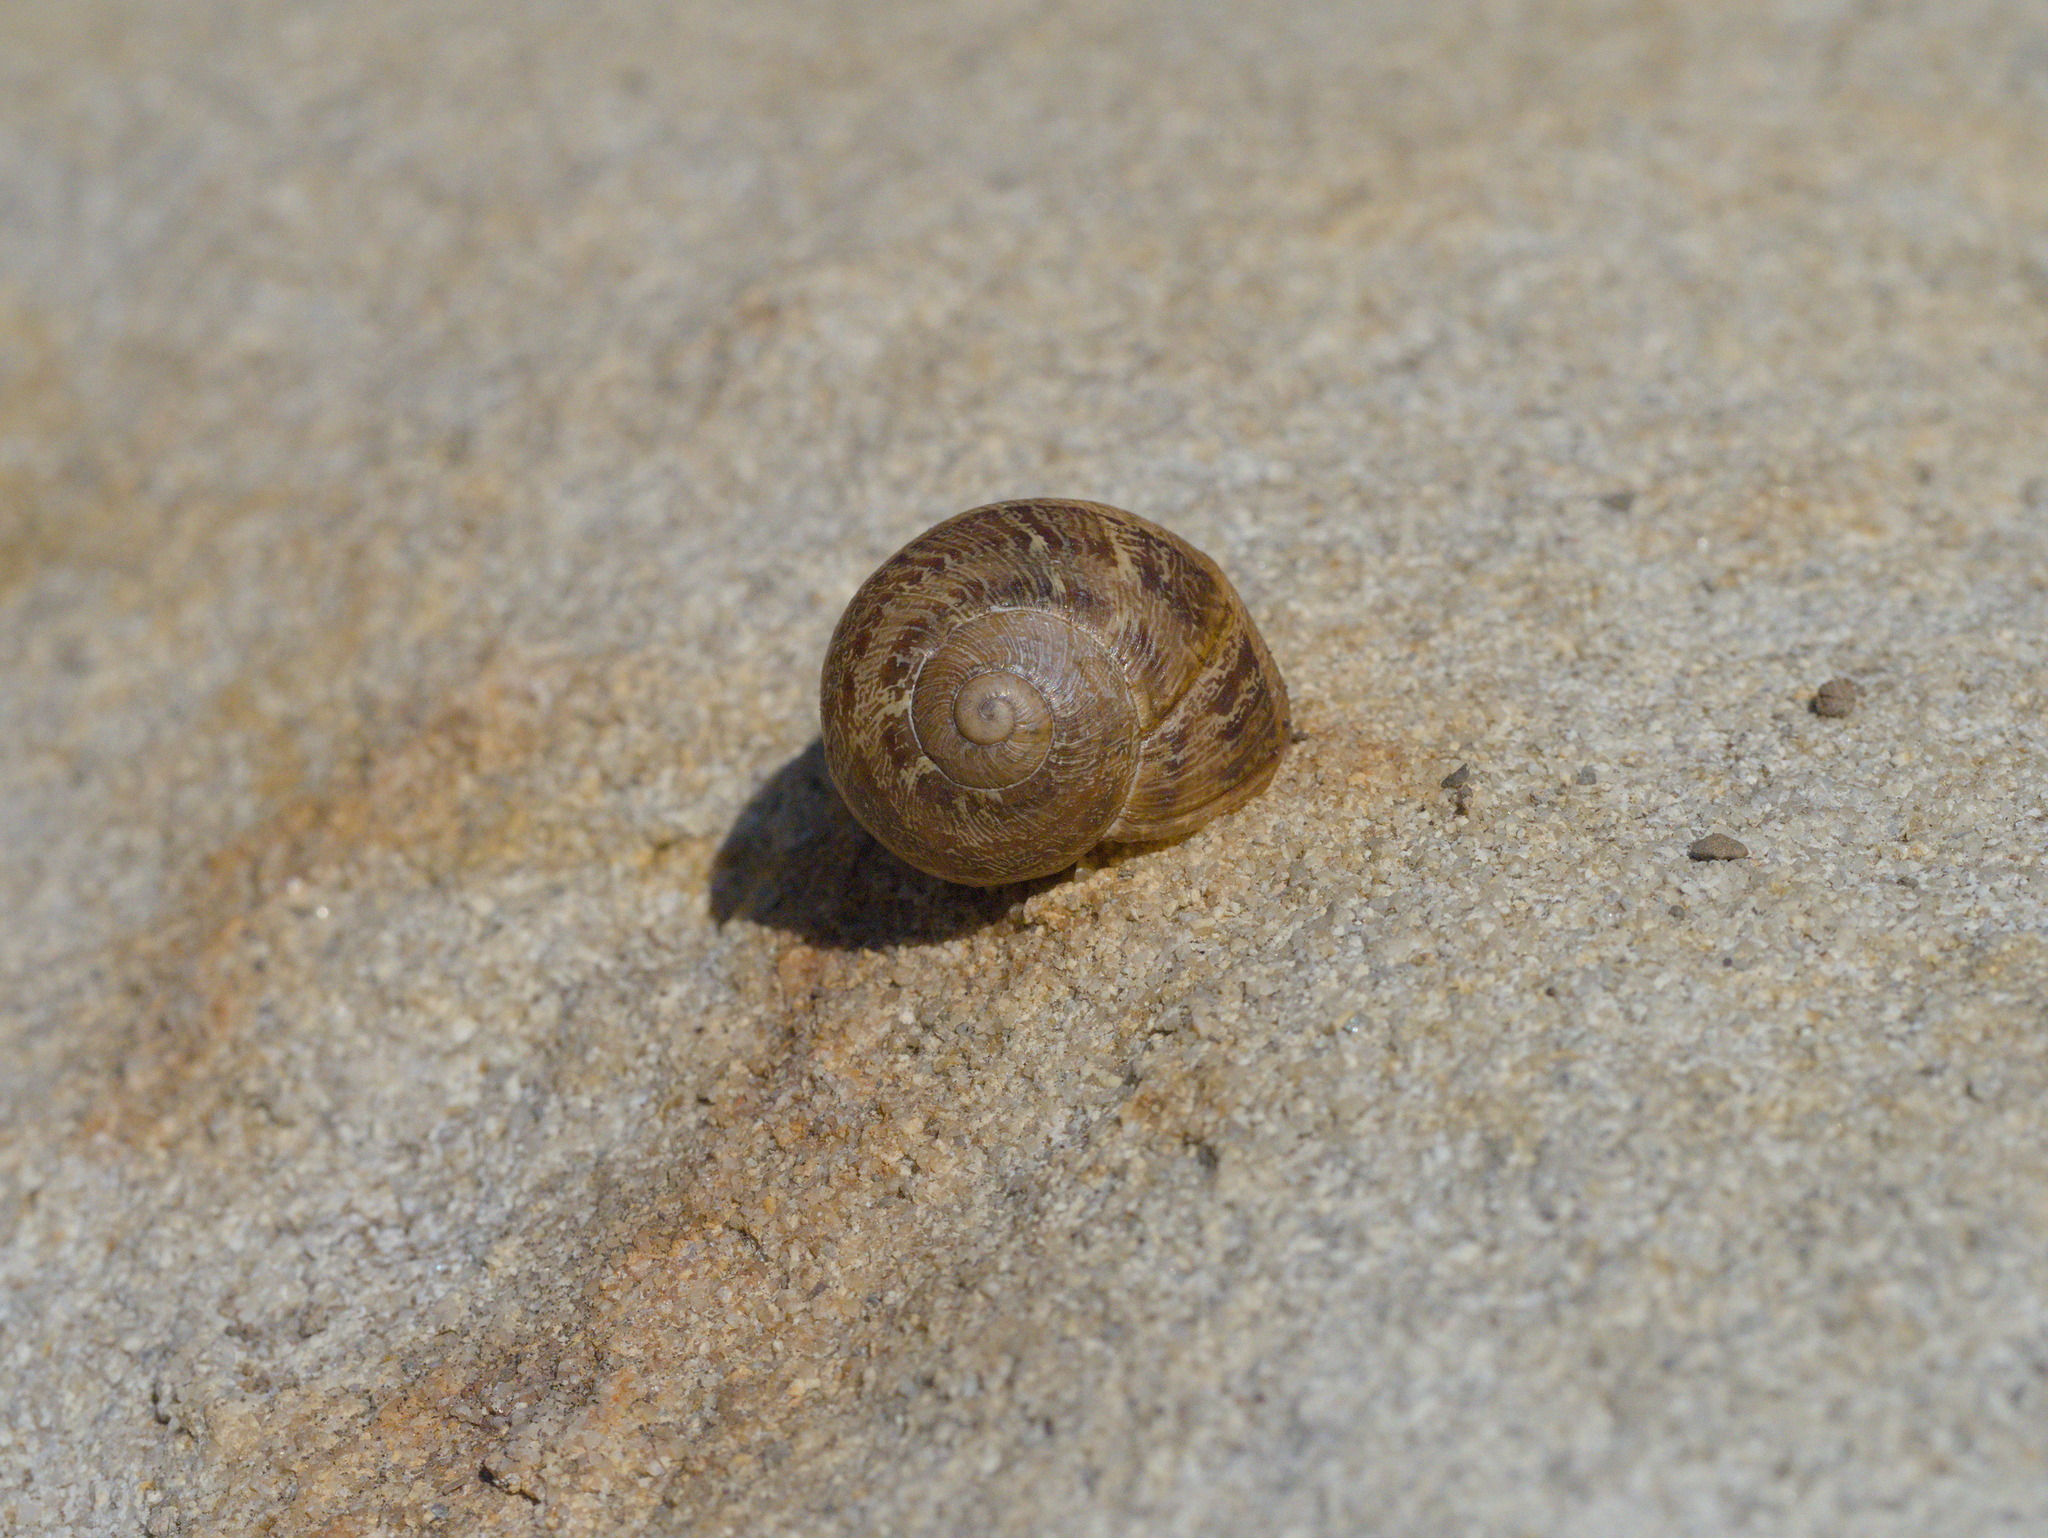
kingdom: Animalia
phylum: Mollusca
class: Gastropoda
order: Stylommatophora
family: Helicidae
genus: Cornu
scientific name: Cornu aspersum
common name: Brown garden snail
